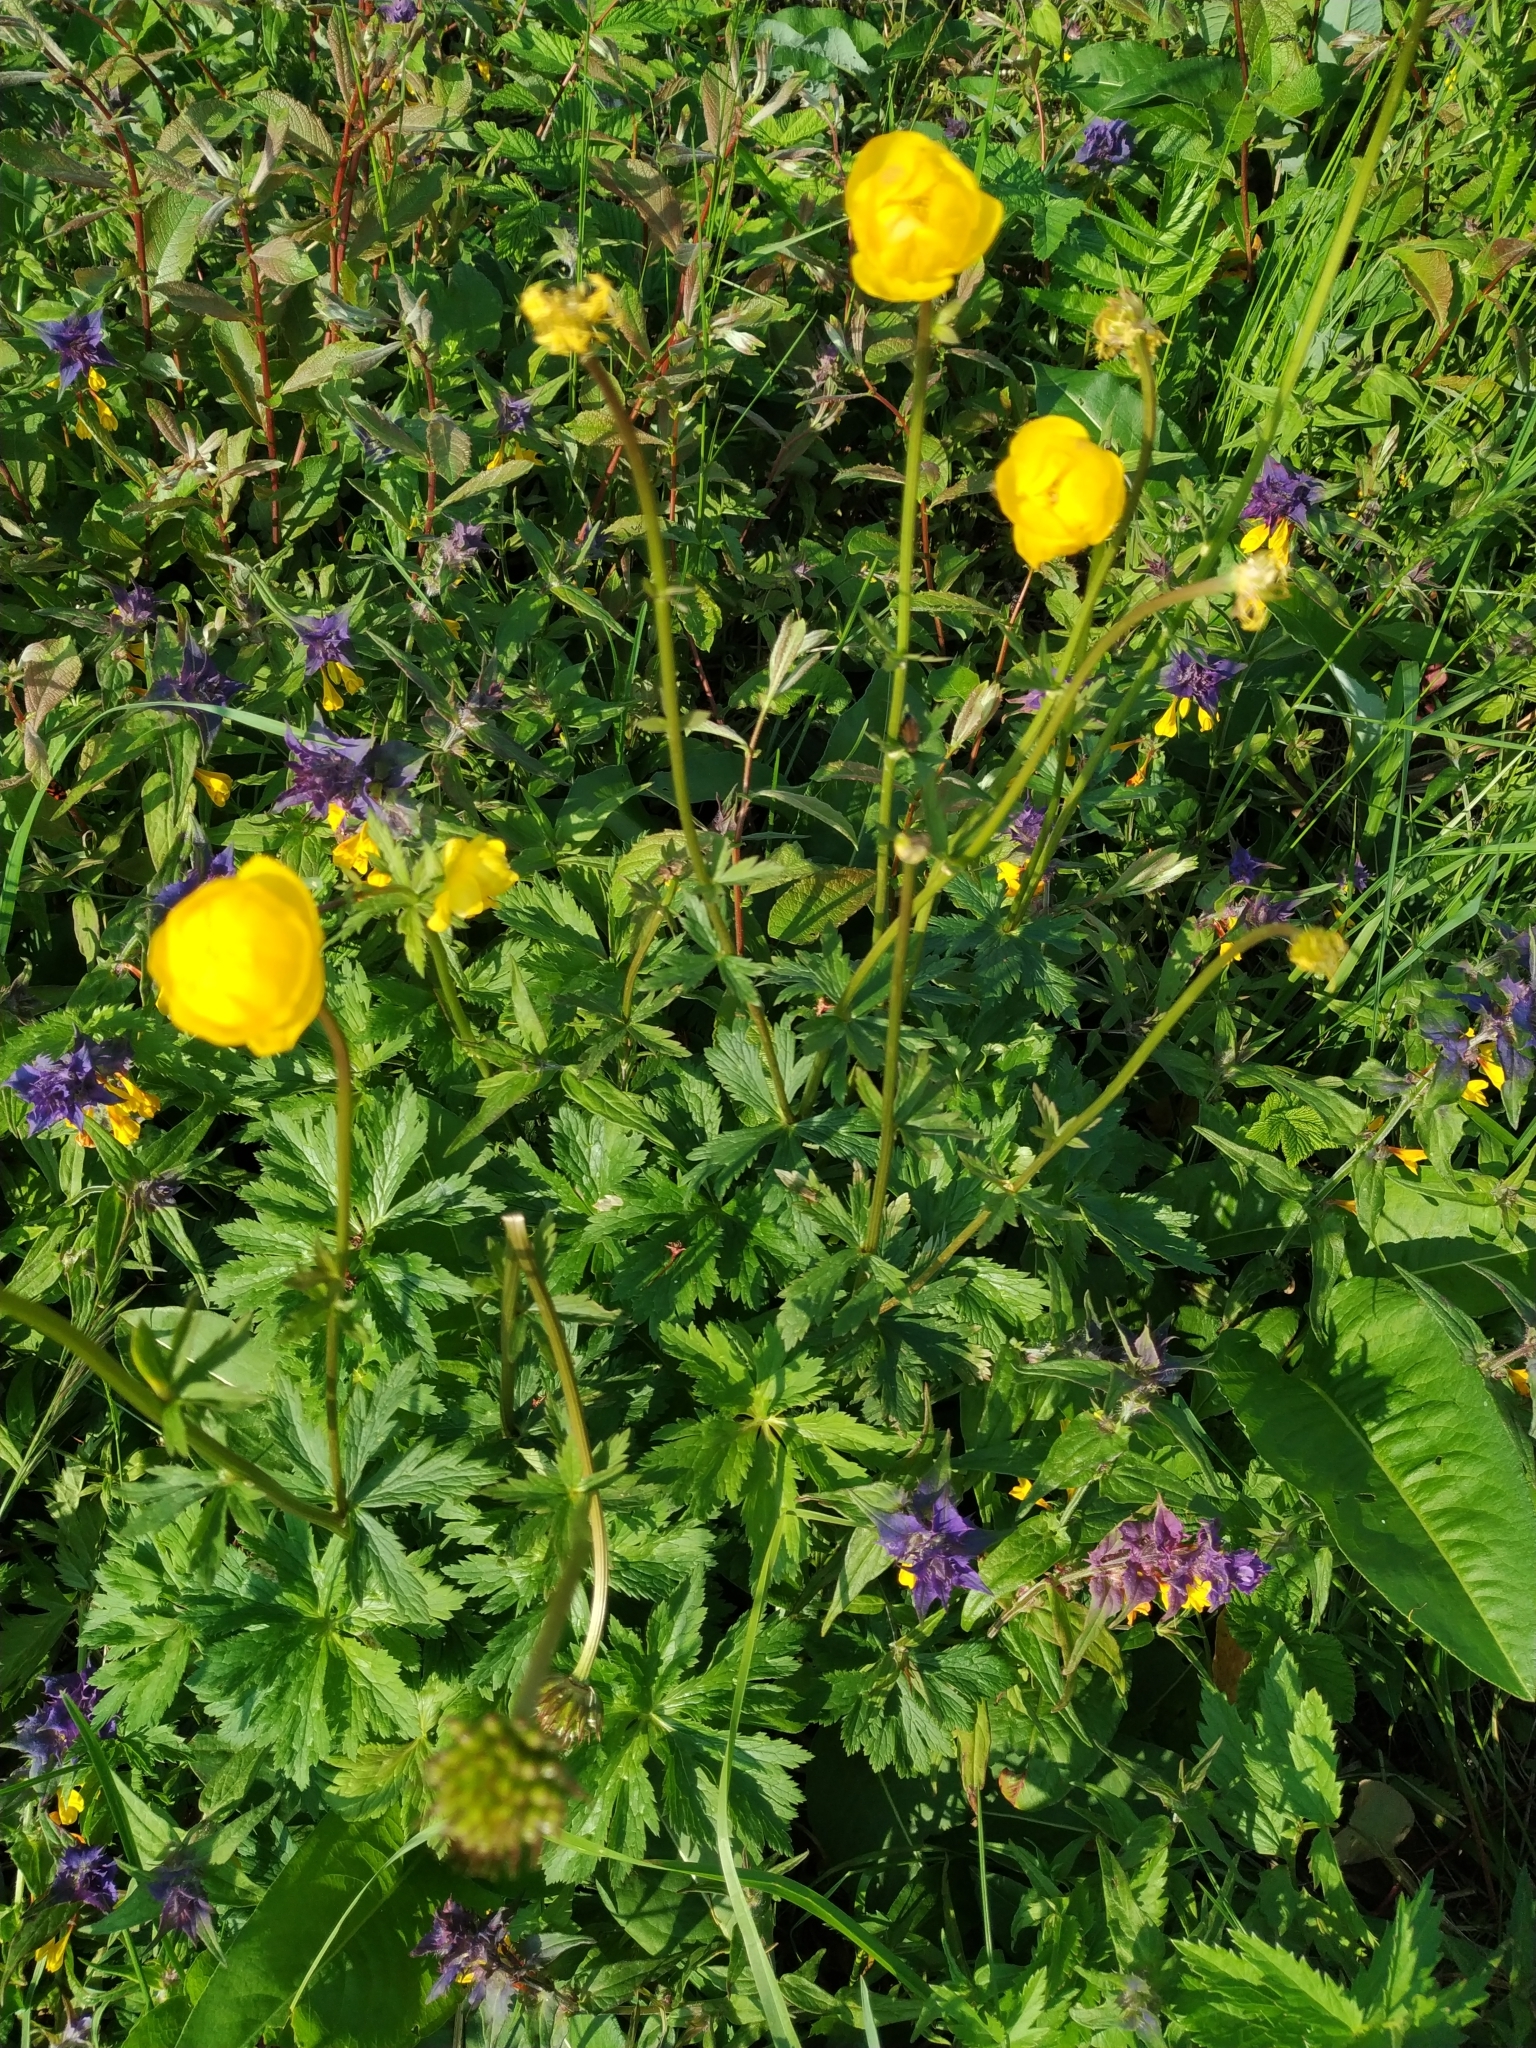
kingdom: Plantae
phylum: Tracheophyta
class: Magnoliopsida
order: Ranunculales
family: Ranunculaceae
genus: Trollius
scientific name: Trollius europaeus
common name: European globeflower
